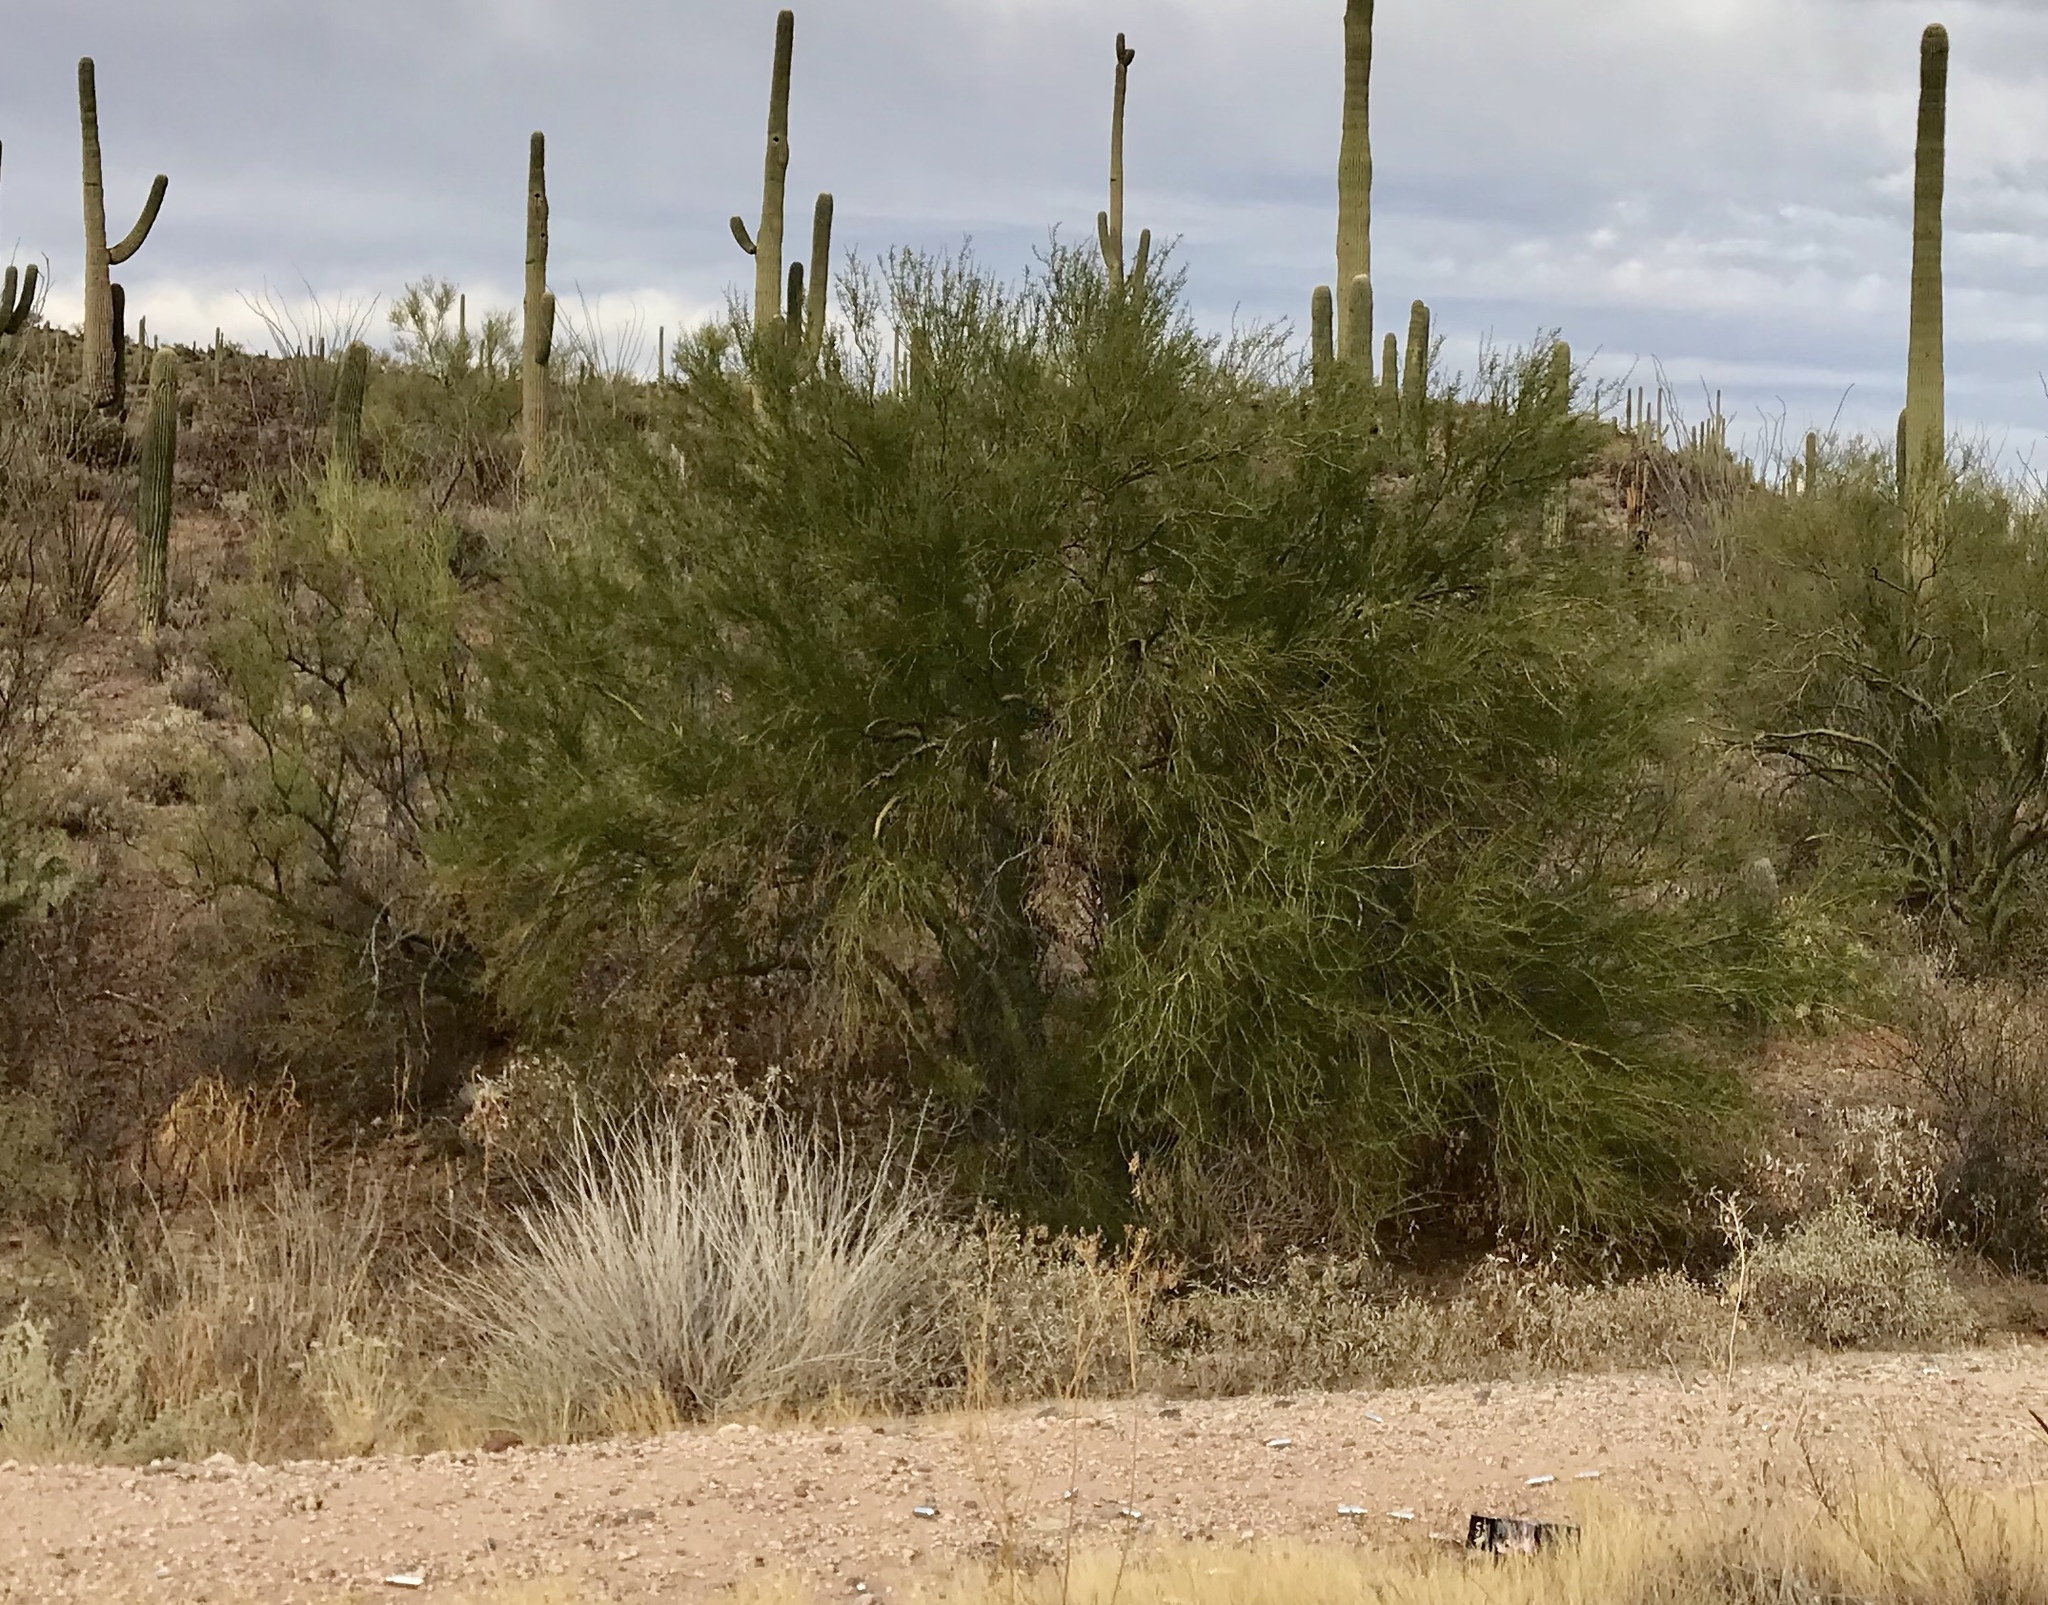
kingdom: Plantae
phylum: Tracheophyta
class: Magnoliopsida
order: Fabales
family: Fabaceae
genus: Parkinsonia
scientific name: Parkinsonia microphylla
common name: Yellow paloverde
